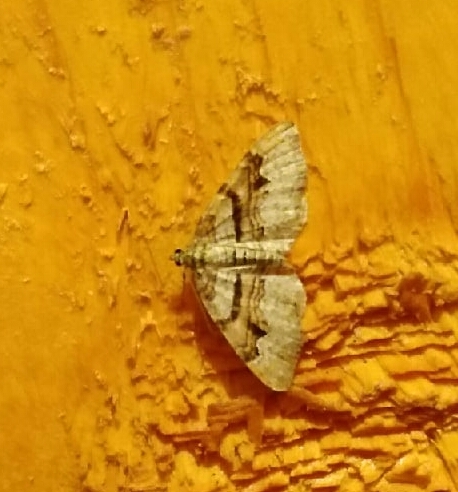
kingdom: Animalia
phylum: Arthropoda
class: Insecta
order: Lepidoptera
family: Geometridae
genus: Xanthorhoe
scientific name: Xanthorhoe designata
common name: Flame carpet
